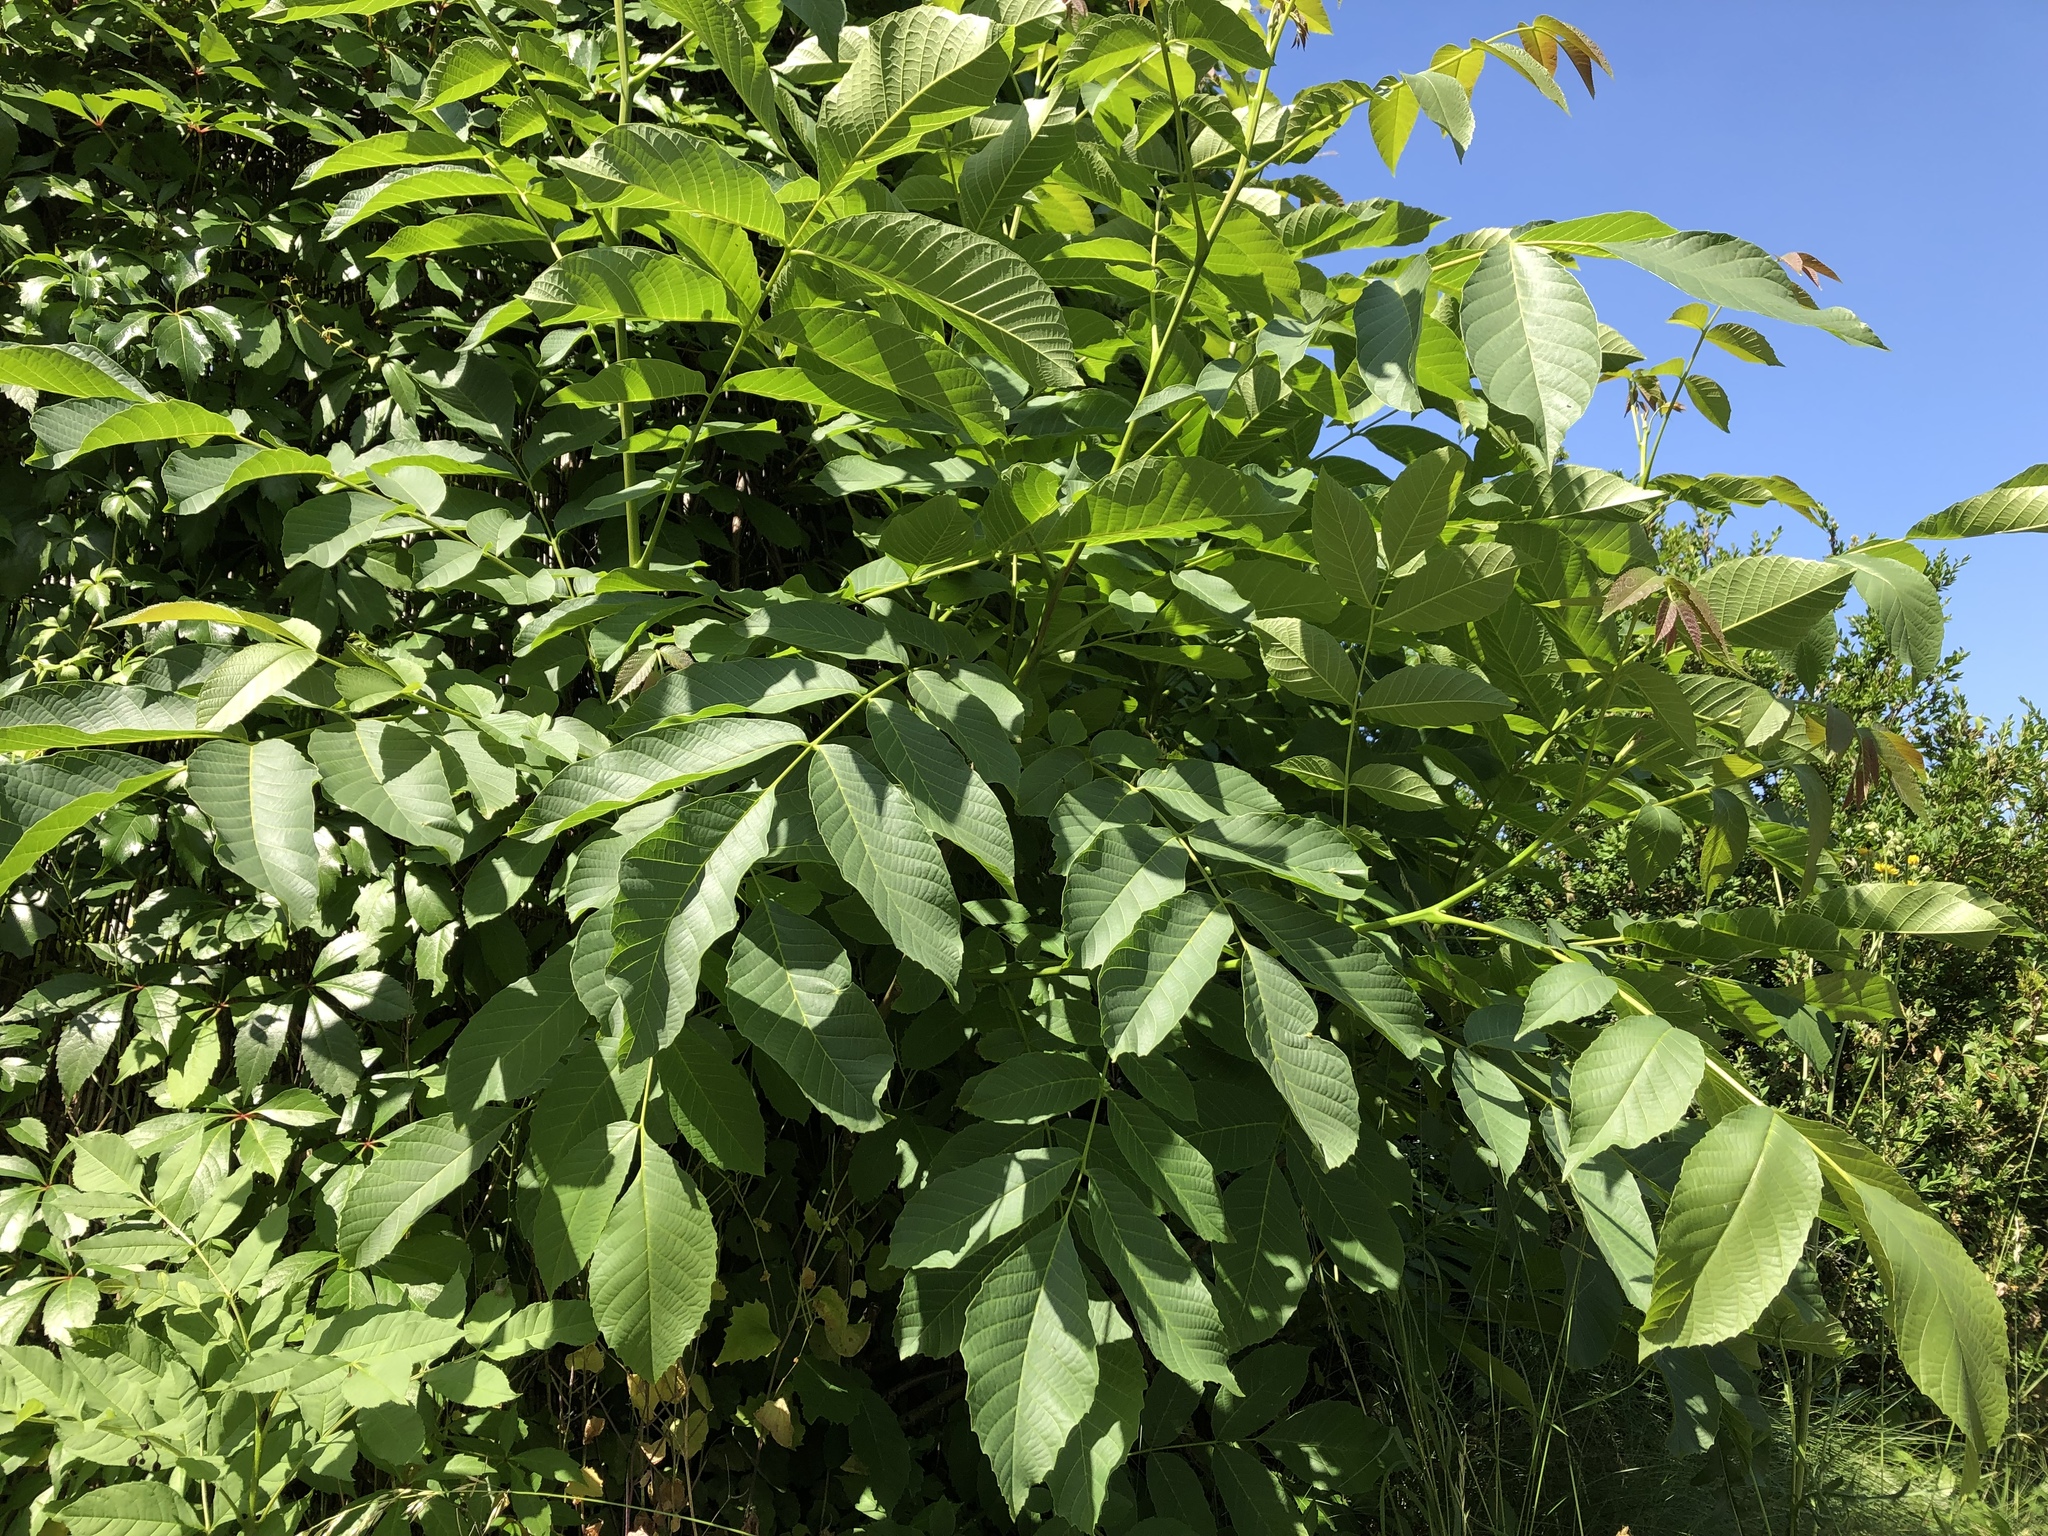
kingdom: Plantae
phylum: Tracheophyta
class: Magnoliopsida
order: Fagales
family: Juglandaceae
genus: Juglans
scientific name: Juglans regia
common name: Walnut
